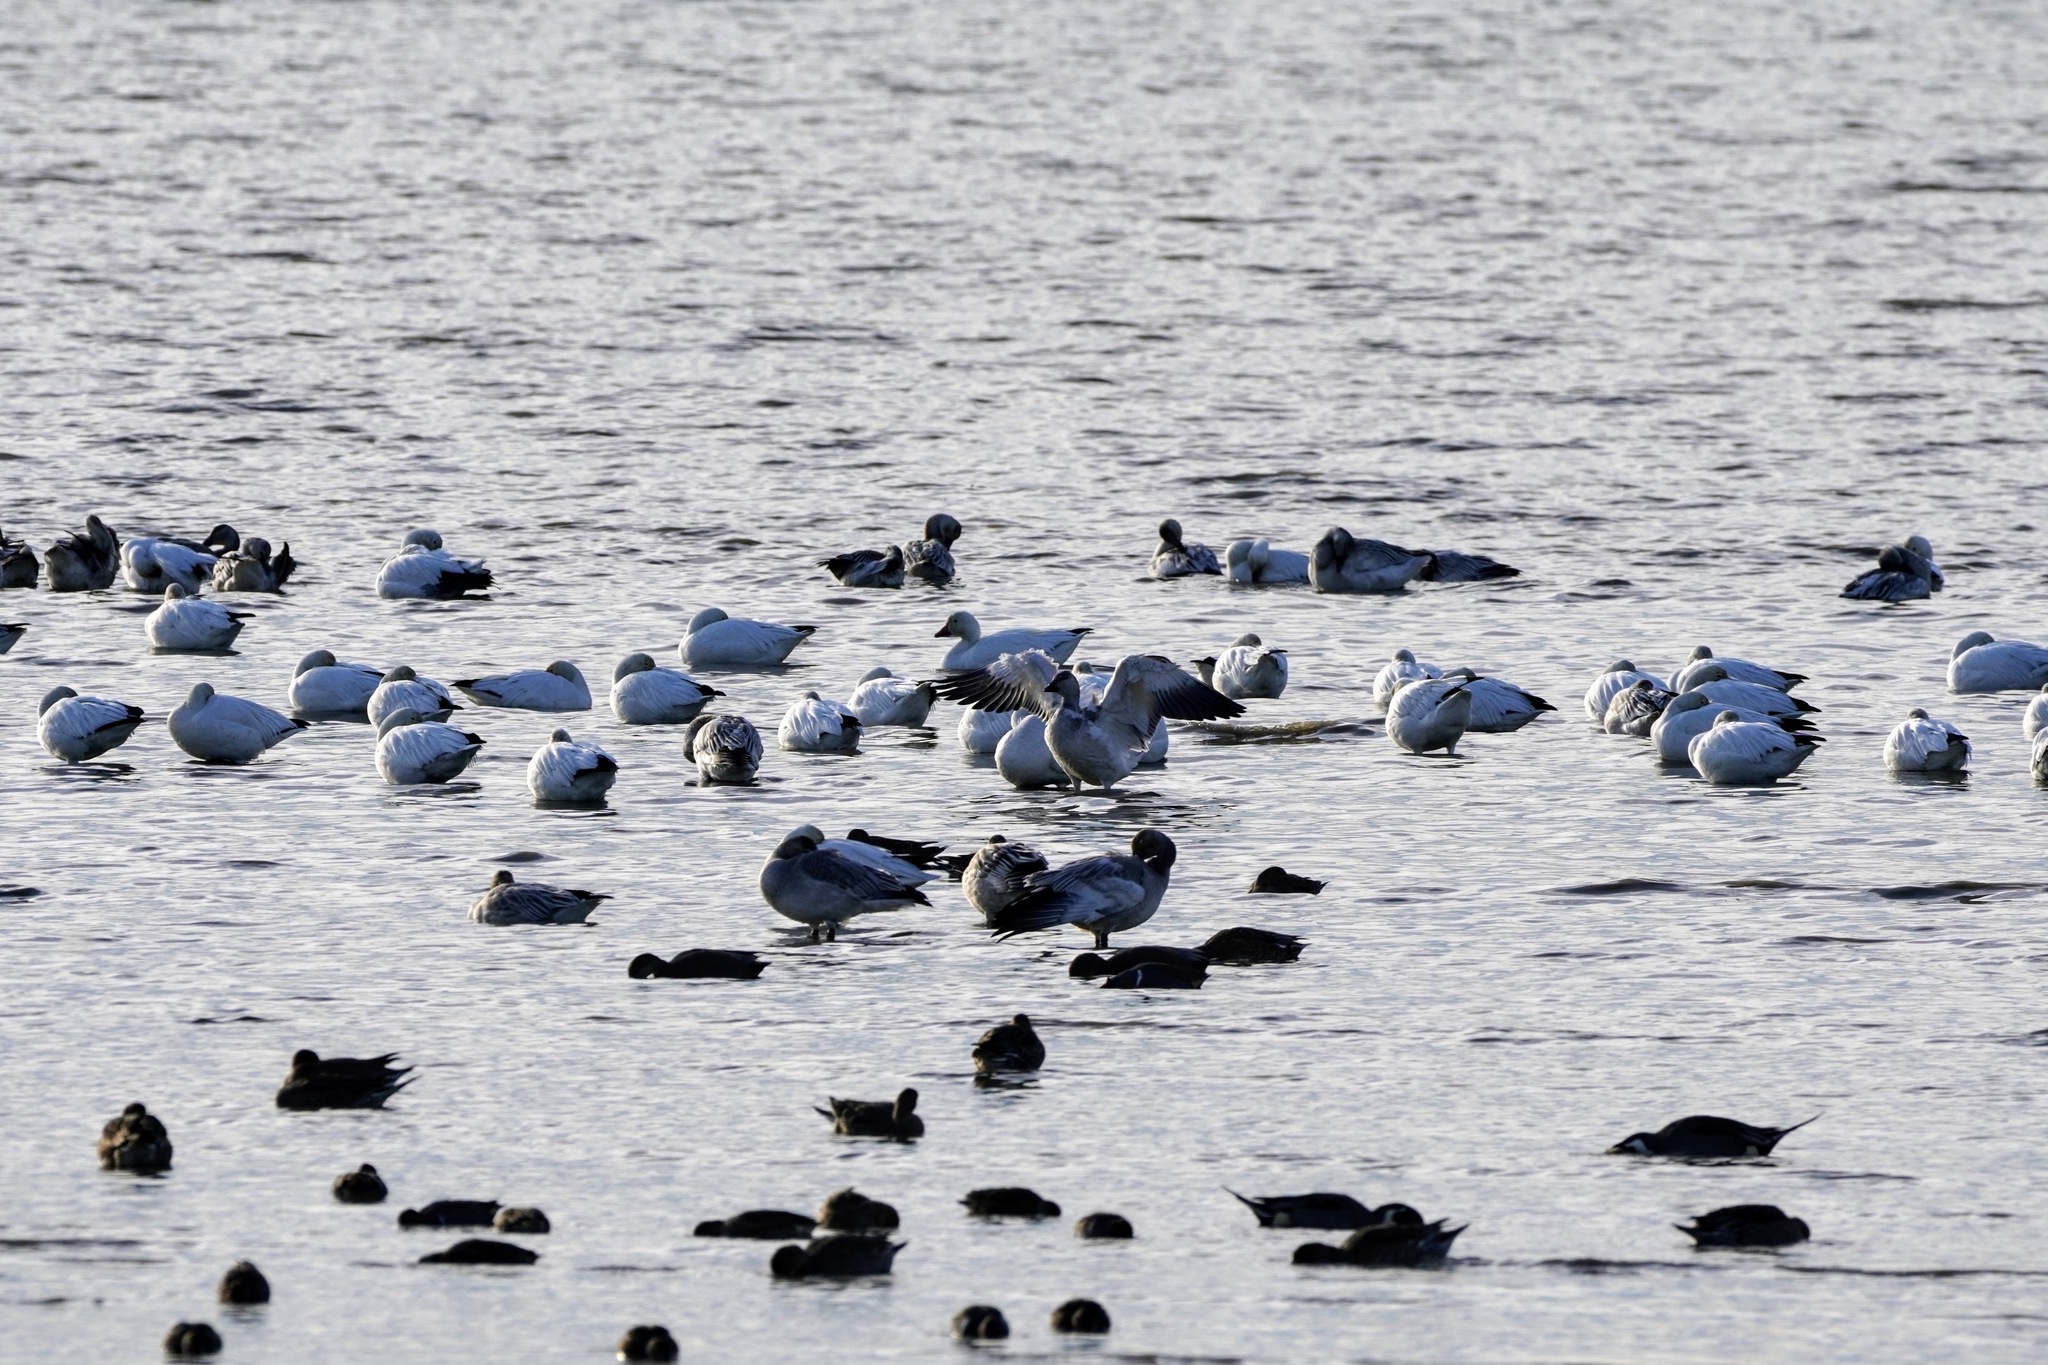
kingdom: Animalia
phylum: Chordata
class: Aves
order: Anseriformes
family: Anatidae
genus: Anser
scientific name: Anser caerulescens
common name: Snow goose
